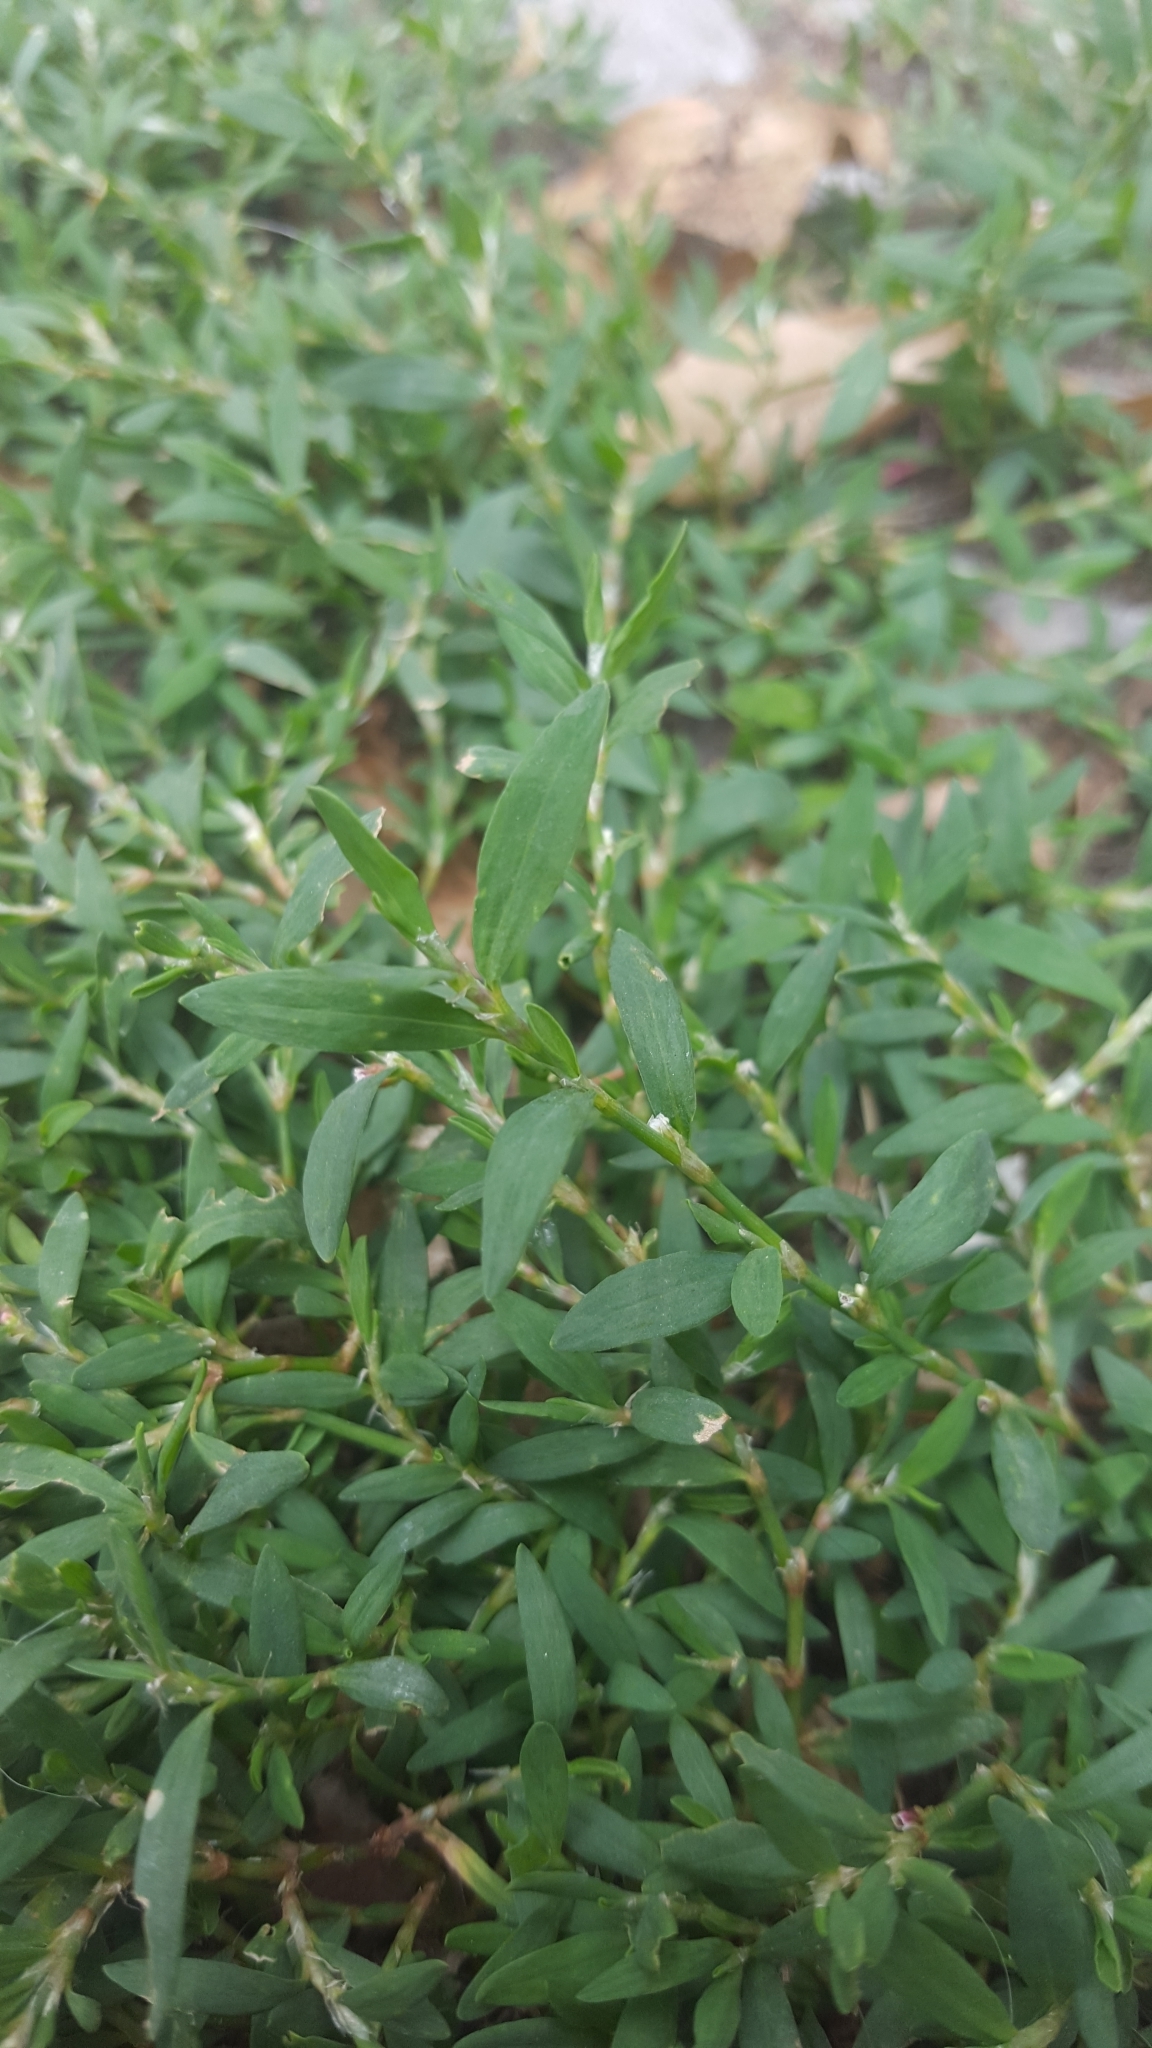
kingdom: Plantae
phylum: Tracheophyta
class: Magnoliopsida
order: Caryophyllales
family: Polygonaceae
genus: Polygonum
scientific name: Polygonum aviculare
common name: Prostrate knotweed
